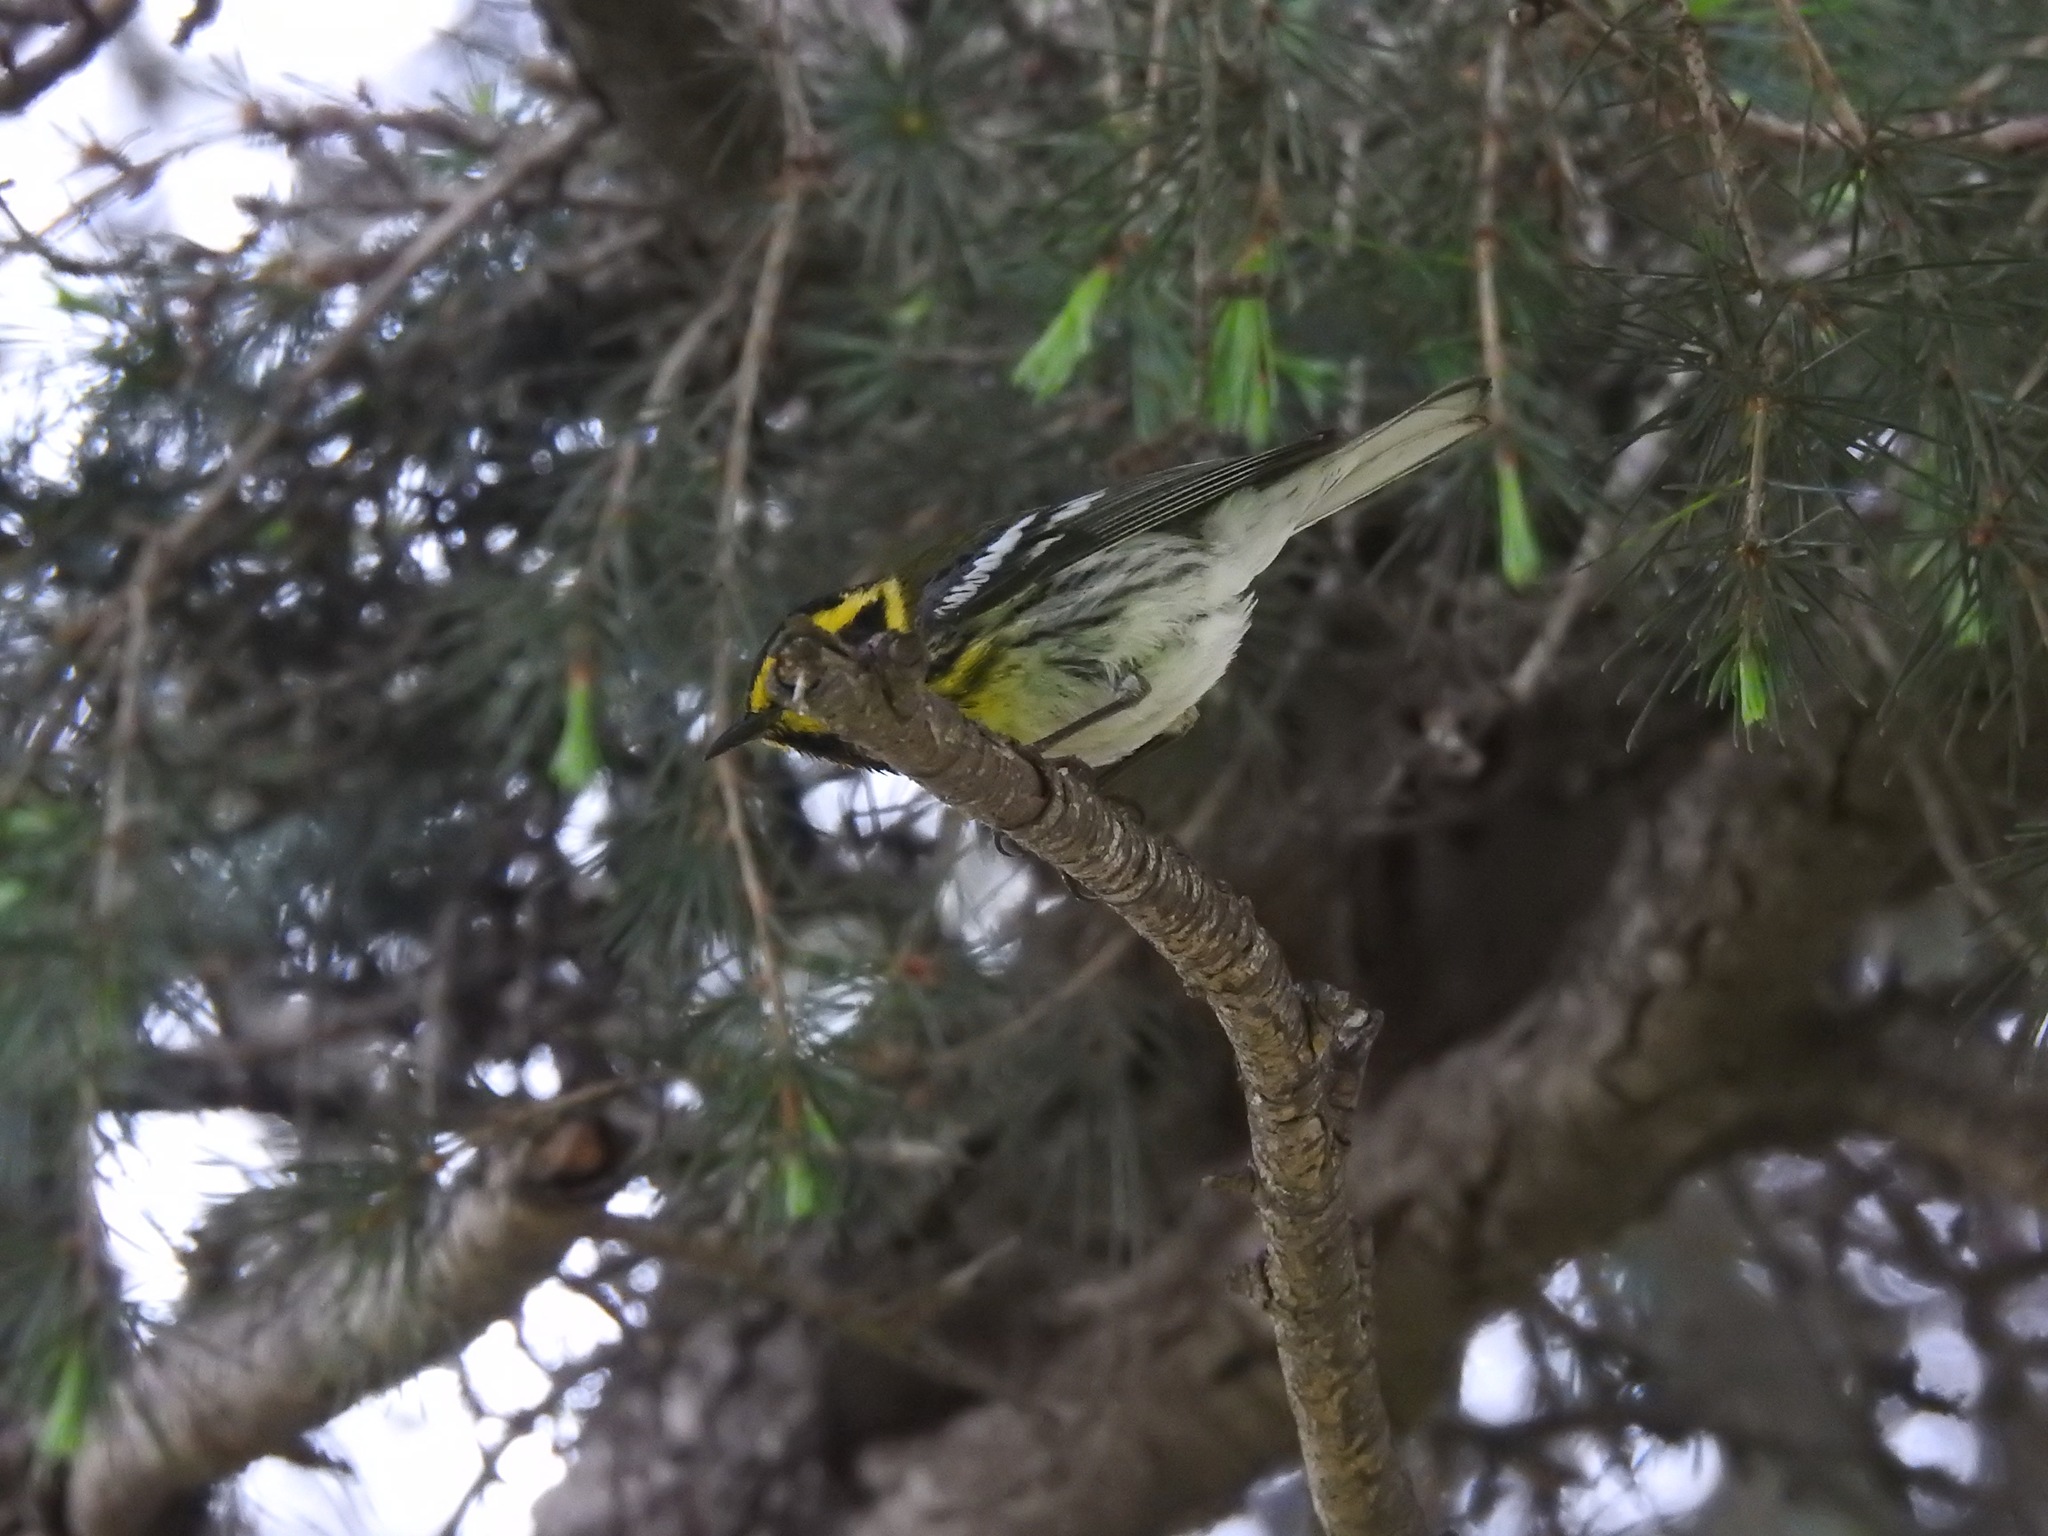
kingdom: Animalia
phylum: Chordata
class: Aves
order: Passeriformes
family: Parulidae
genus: Setophaga
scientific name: Setophaga townsendi
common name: Townsend's warbler
